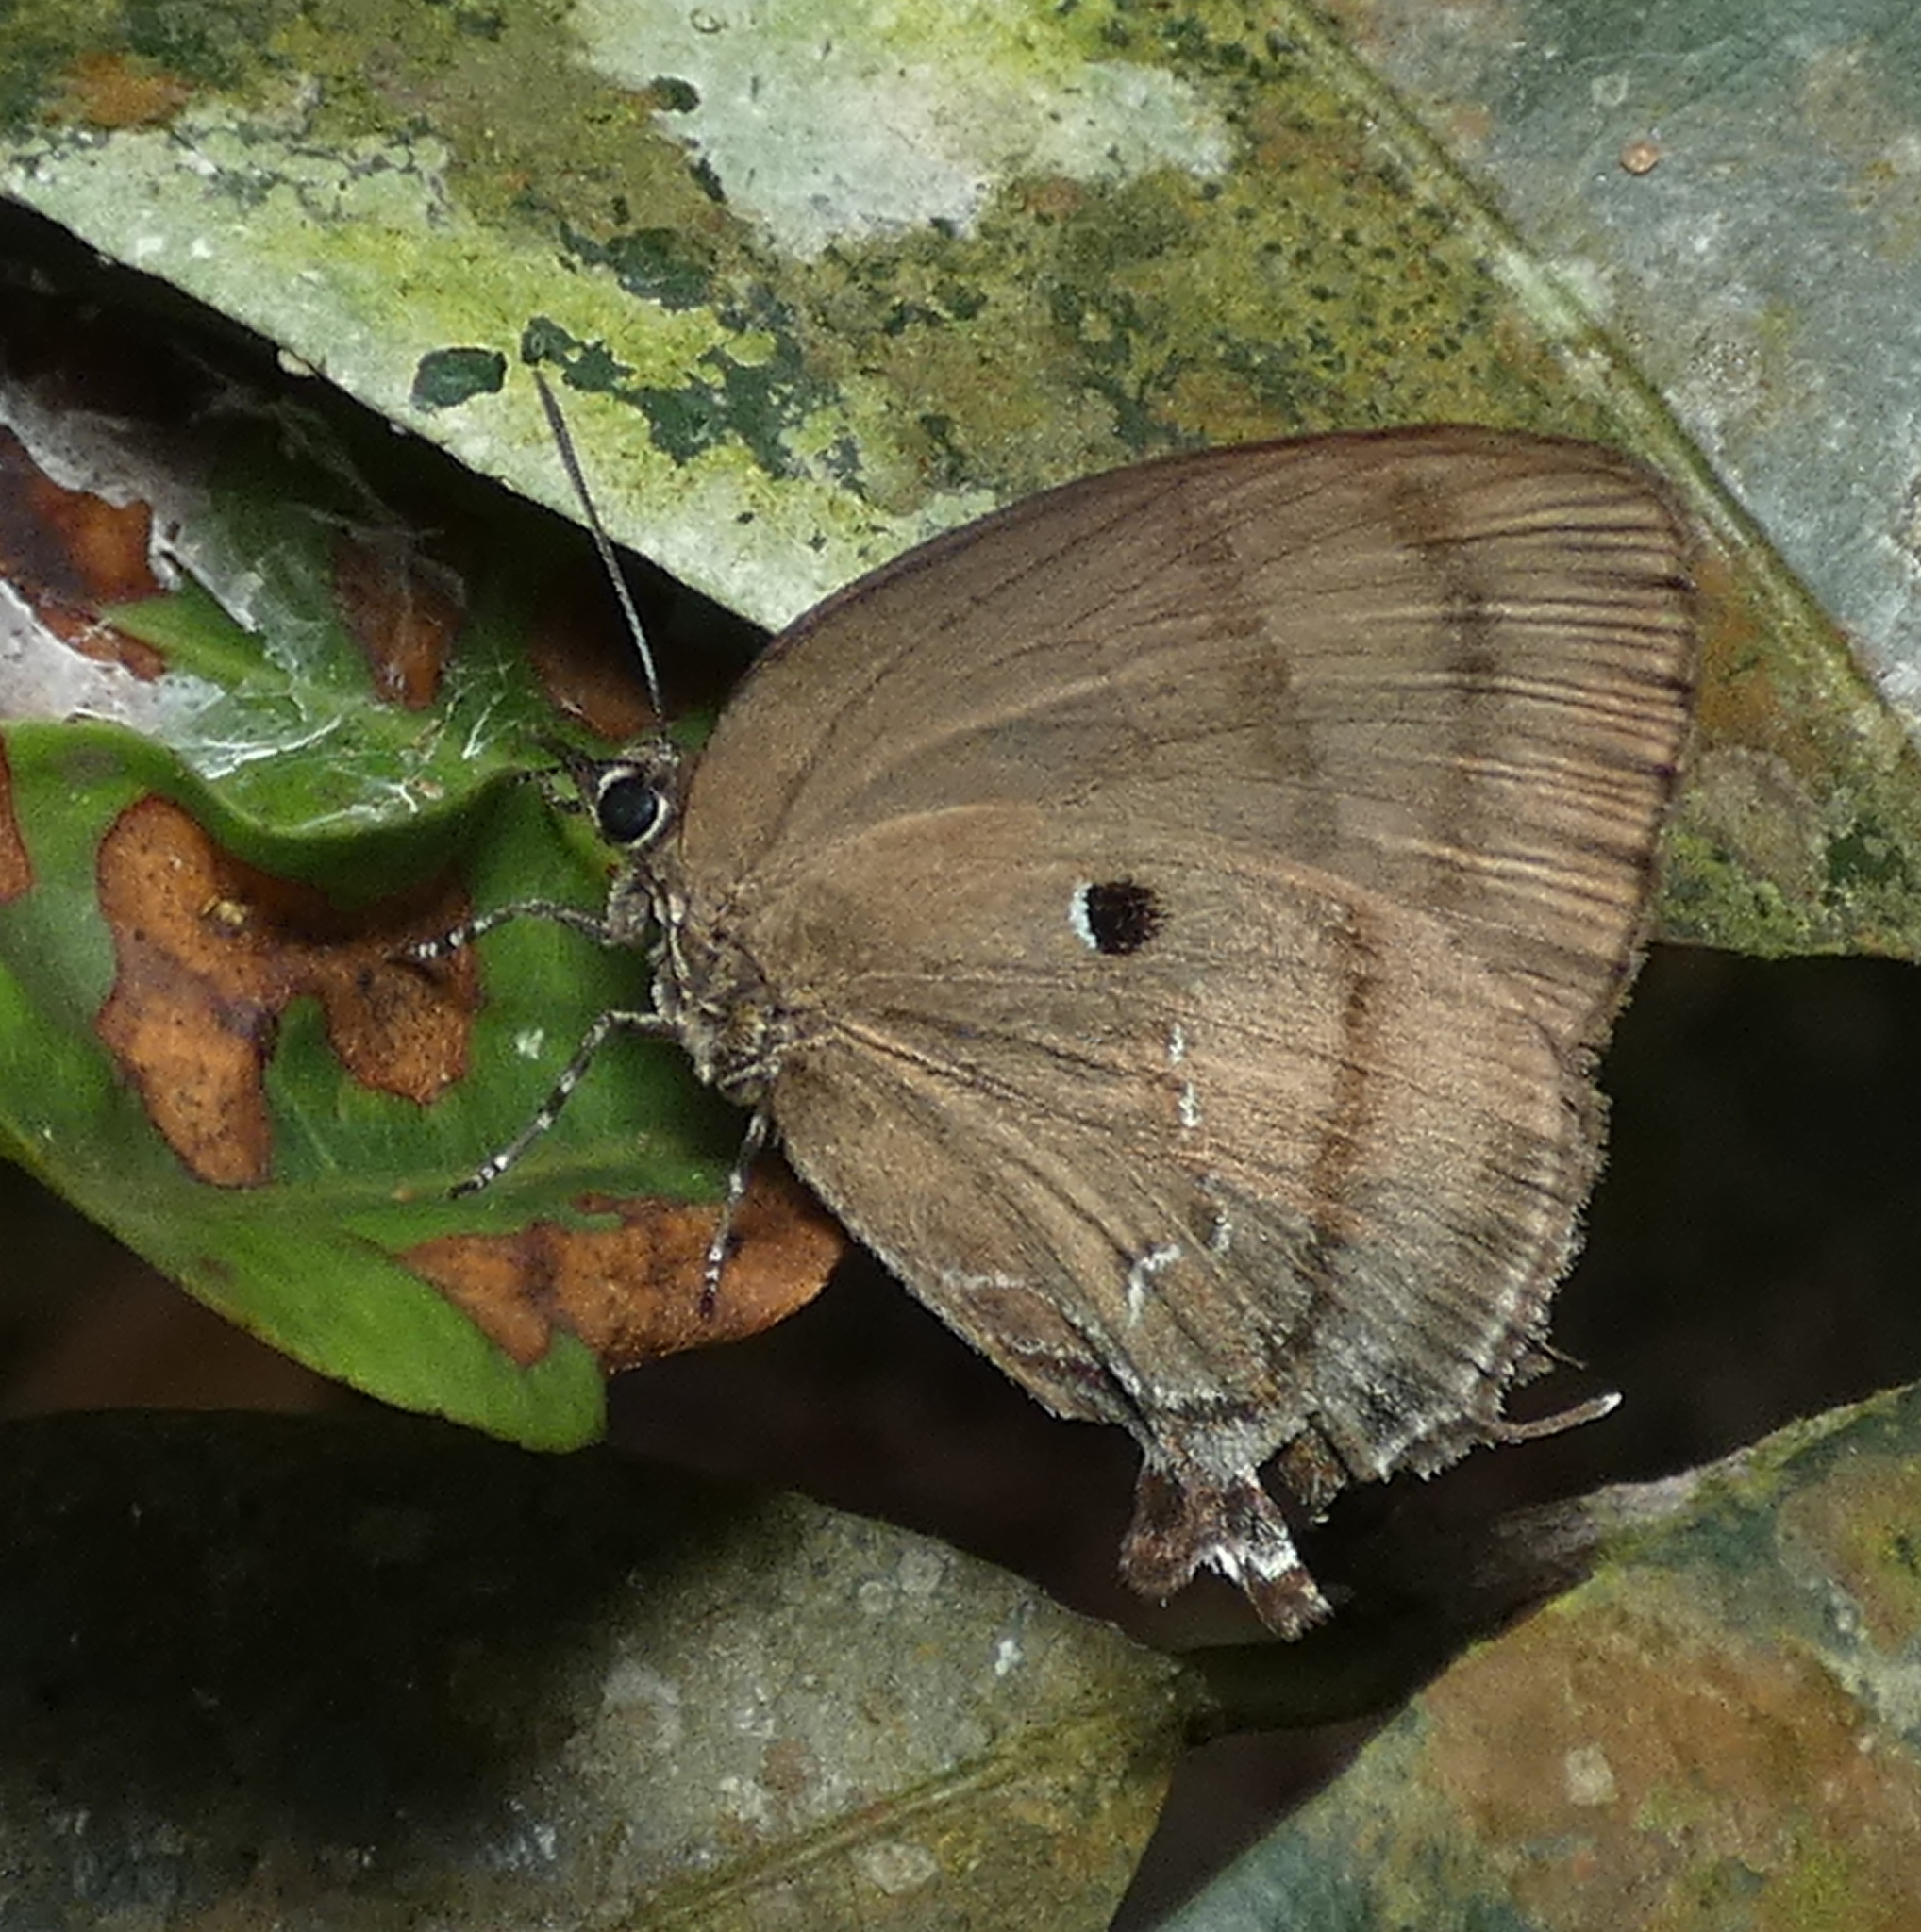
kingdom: Animalia
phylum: Arthropoda
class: Insecta
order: Lepidoptera
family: Lycaenidae
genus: Denivia
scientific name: Denivia hemon
